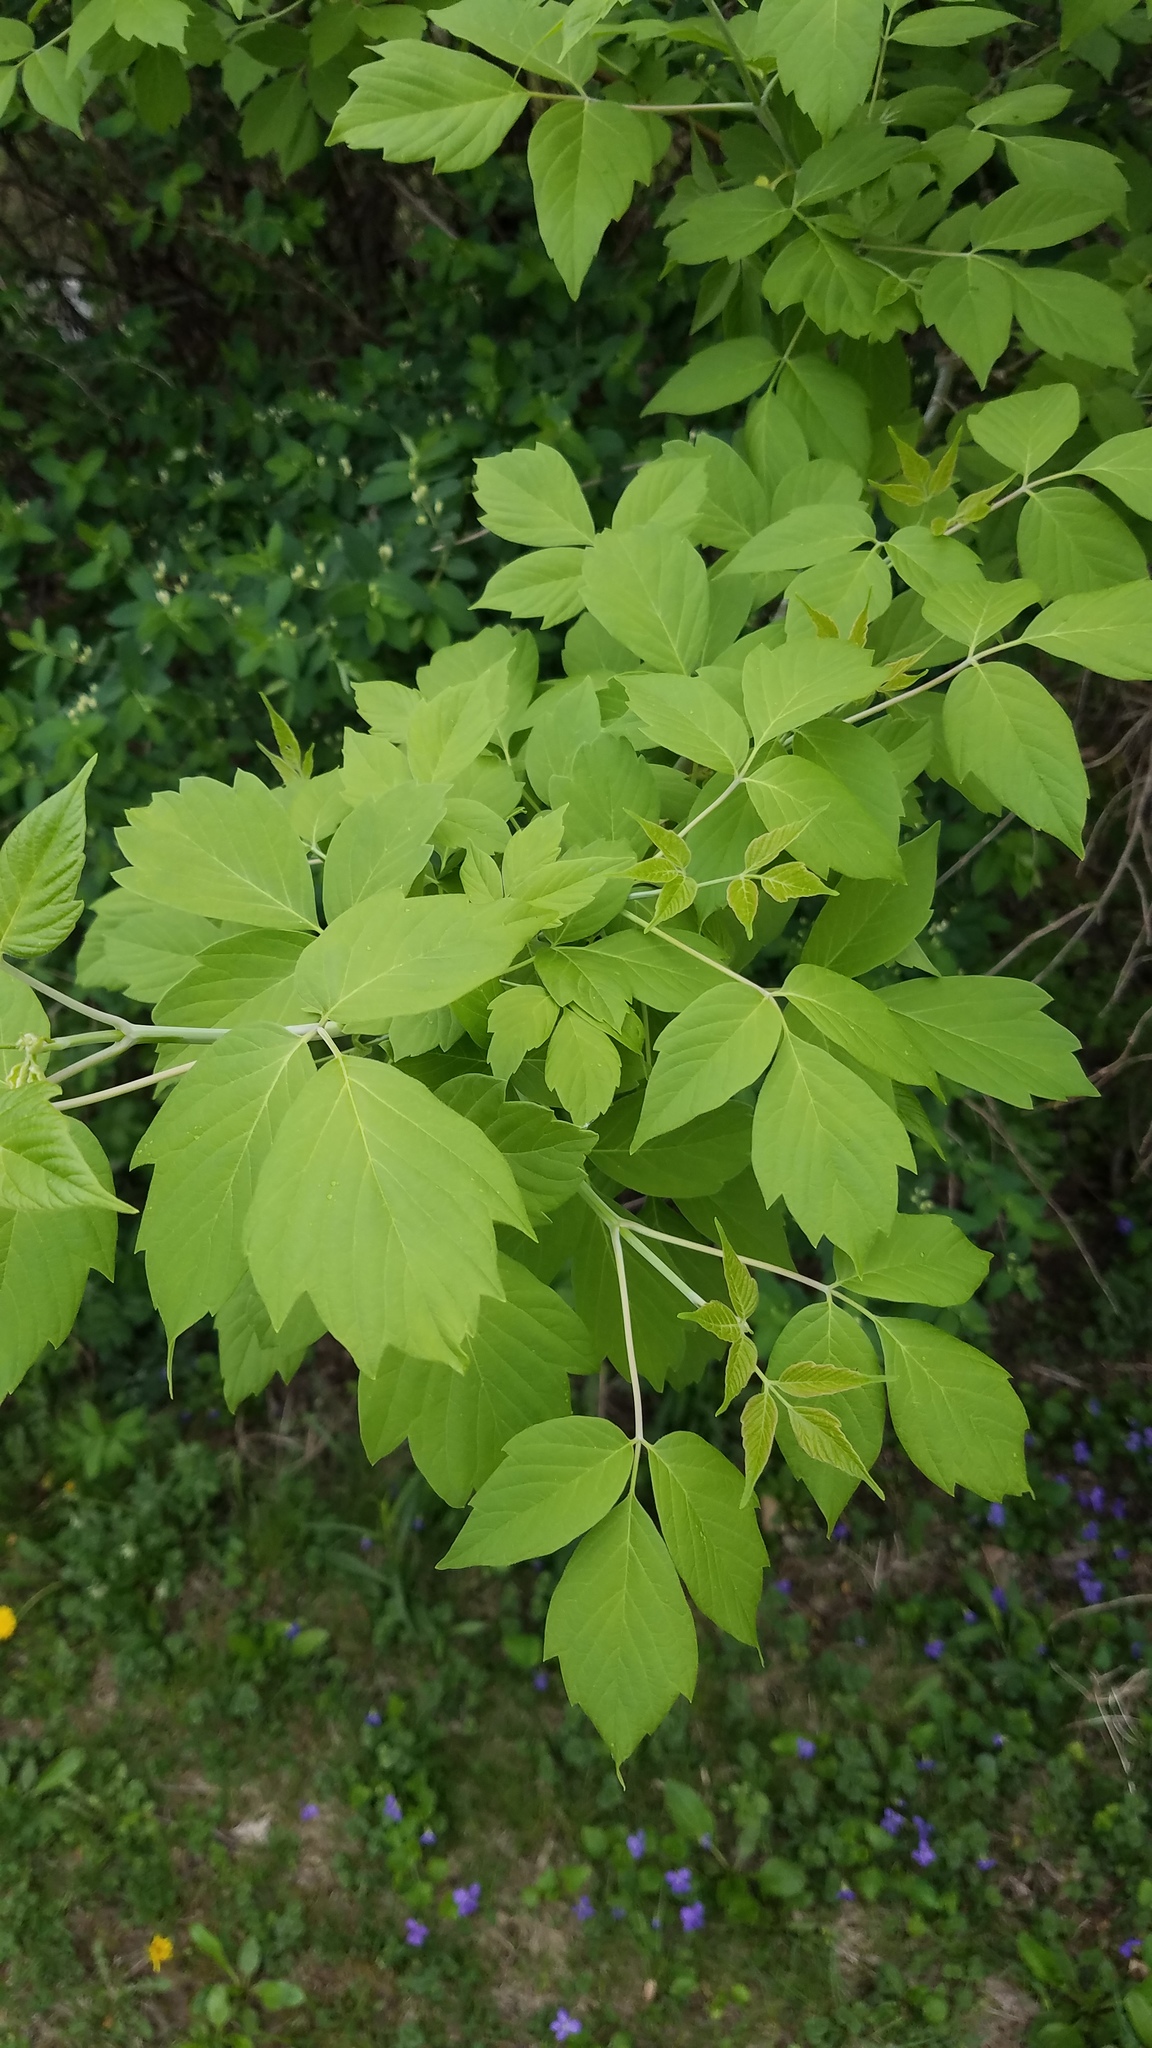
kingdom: Plantae
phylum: Tracheophyta
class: Magnoliopsida
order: Sapindales
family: Sapindaceae
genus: Acer
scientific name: Acer negundo
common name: Ashleaf maple
